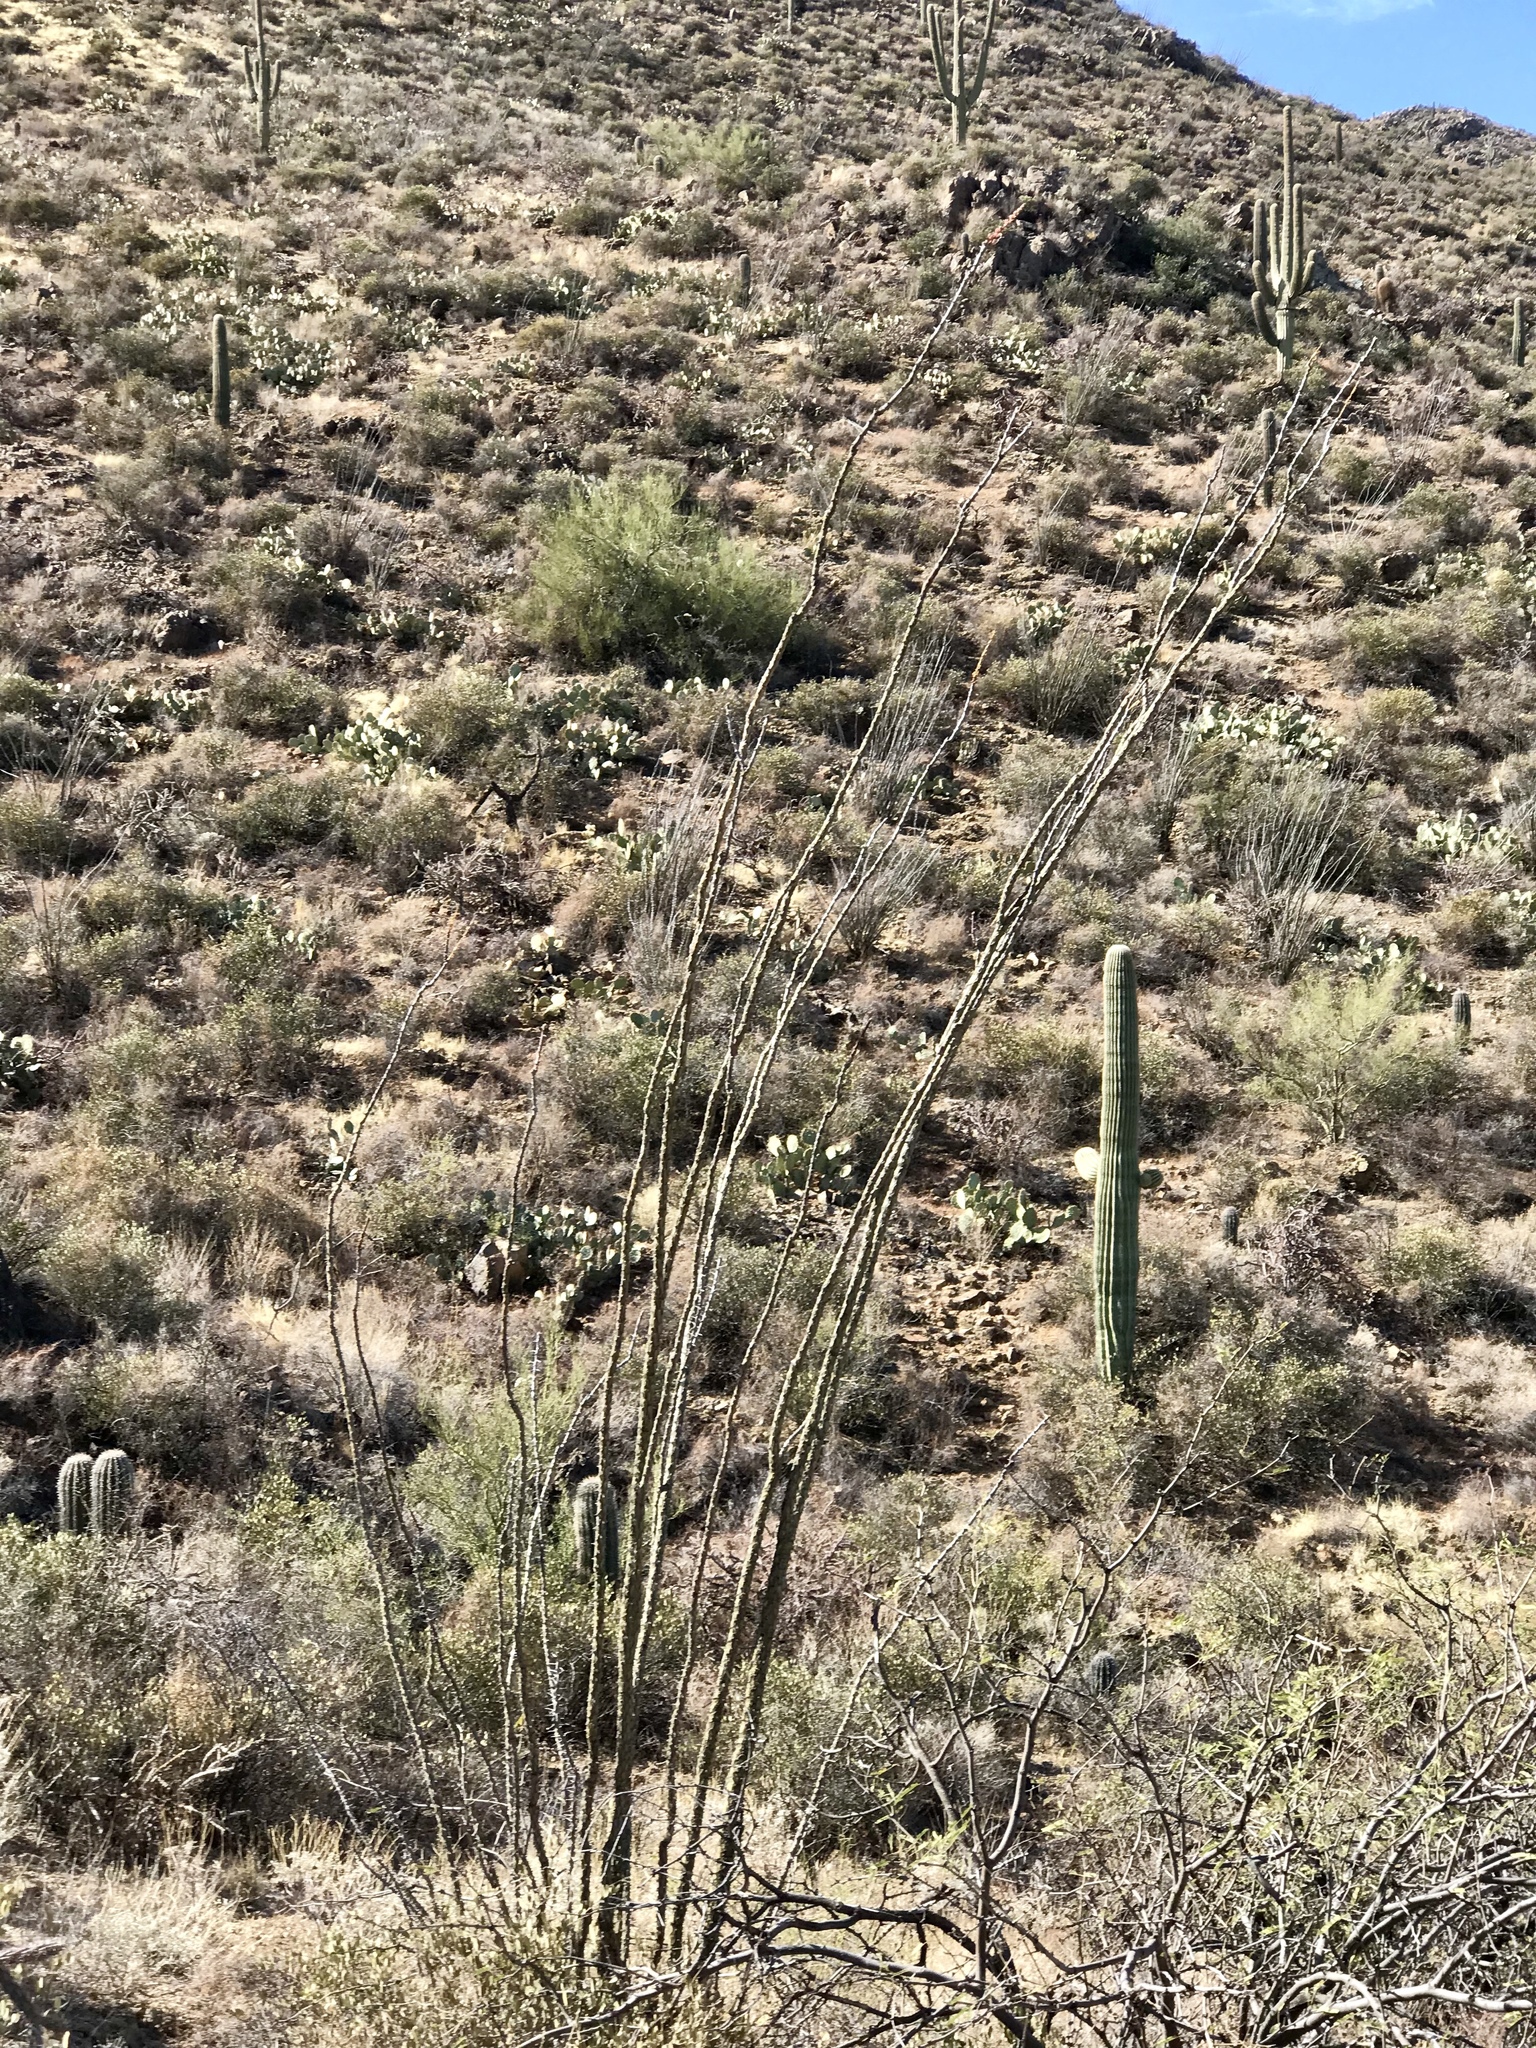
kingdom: Plantae
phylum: Tracheophyta
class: Magnoliopsida
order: Ericales
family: Fouquieriaceae
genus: Fouquieria
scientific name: Fouquieria splendens
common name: Vine-cactus
